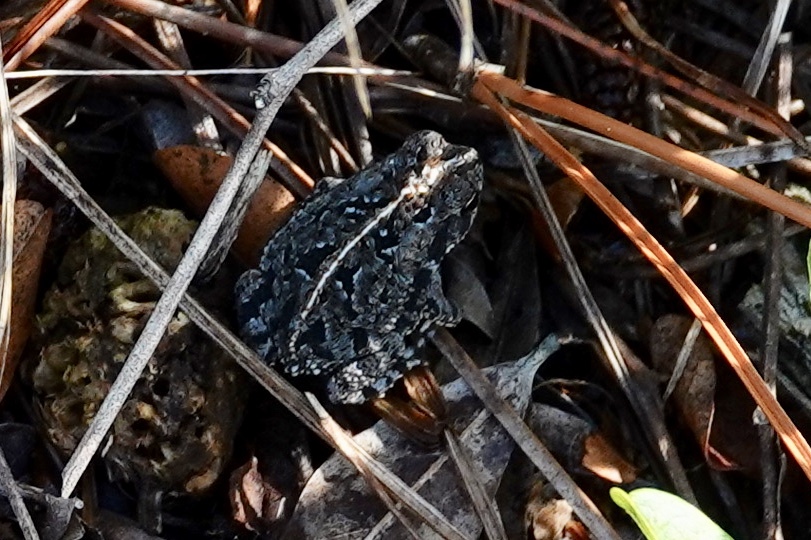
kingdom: Animalia
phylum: Chordata
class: Amphibia
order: Anura
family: Bufonidae
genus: Anaxyrus
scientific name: Anaxyrus quercicus
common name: Oak toad
